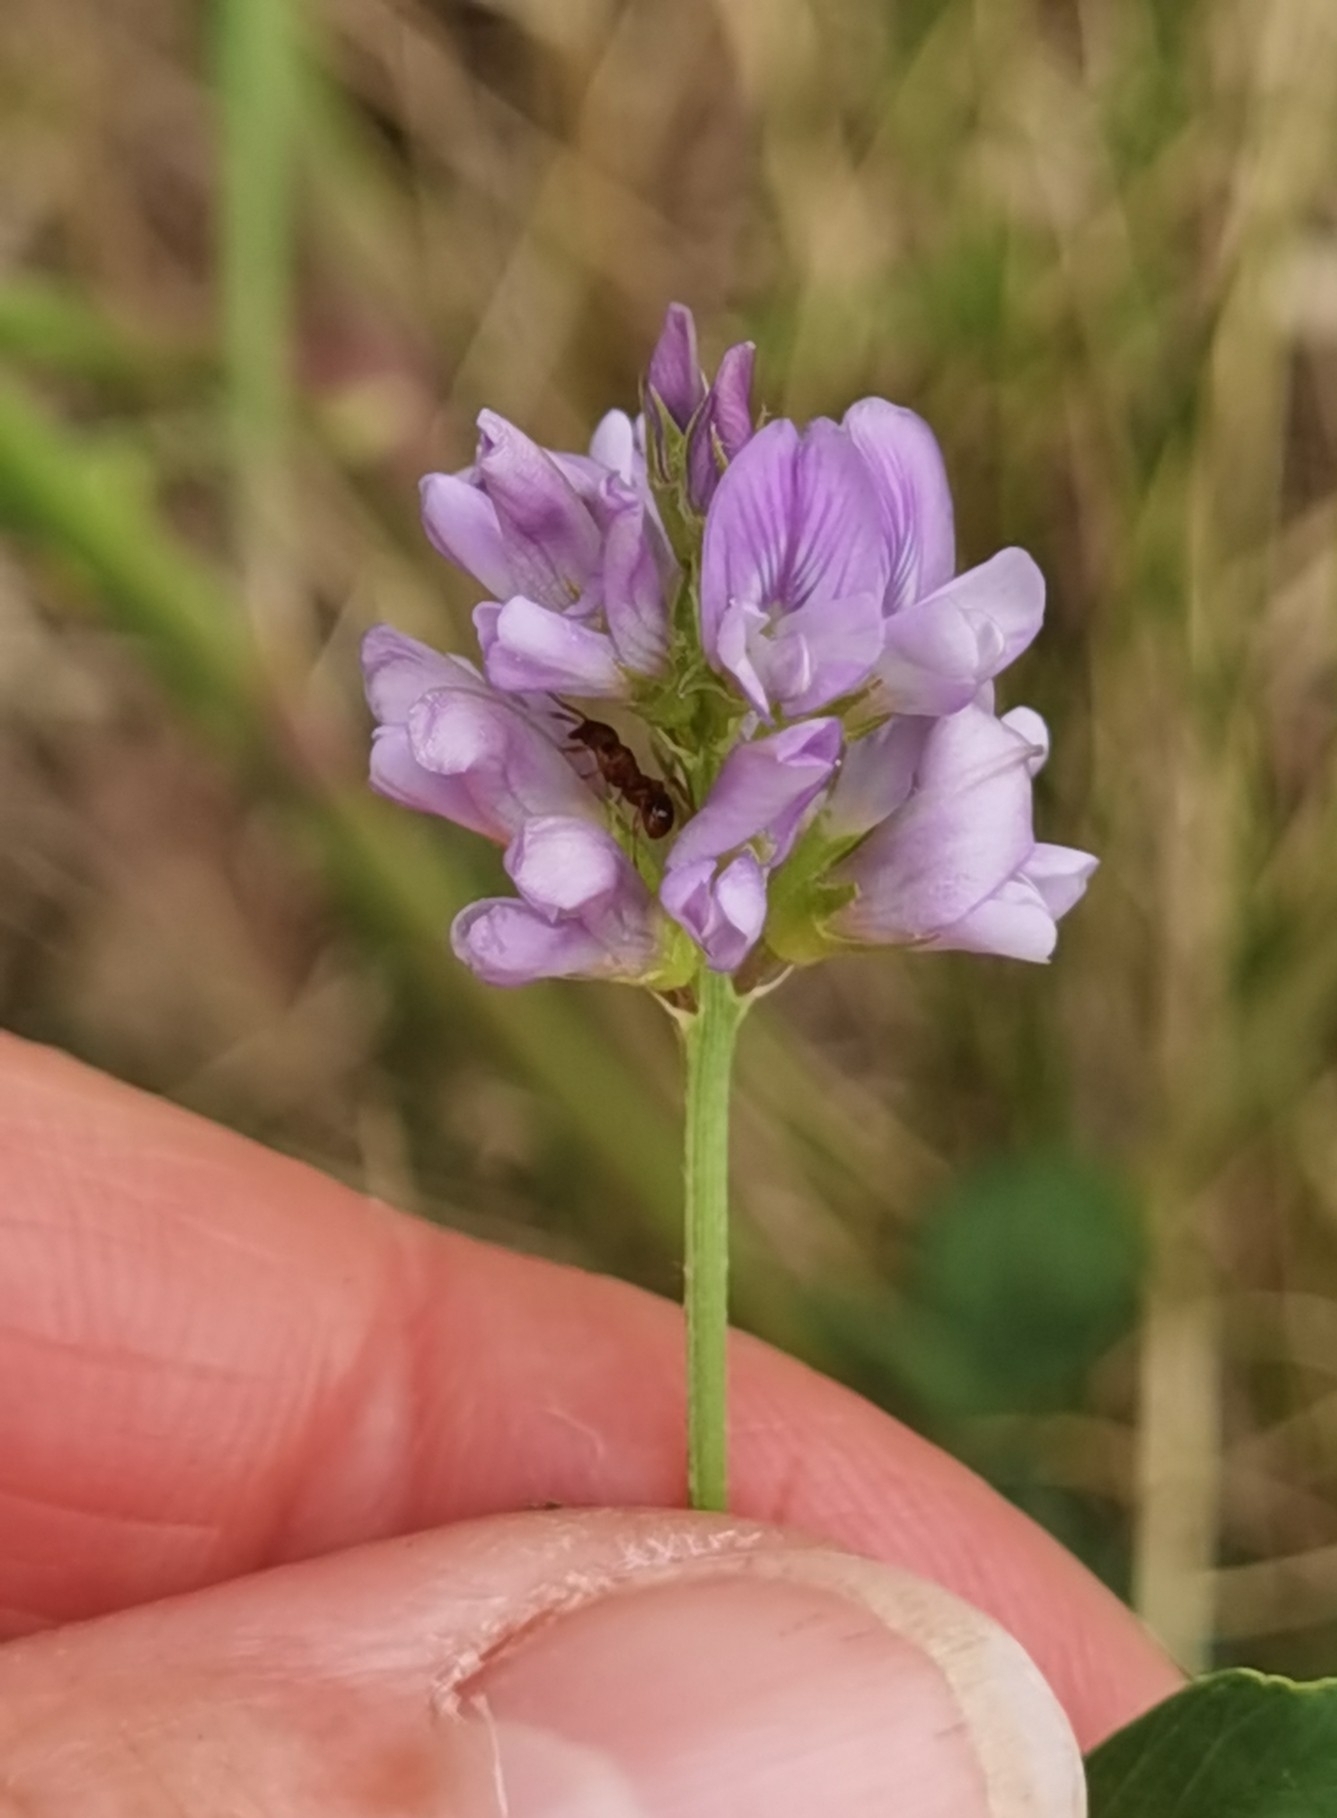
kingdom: Plantae
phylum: Tracheophyta
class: Magnoliopsida
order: Fabales
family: Fabaceae
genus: Medicago
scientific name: Medicago sativa
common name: Alfalfa
